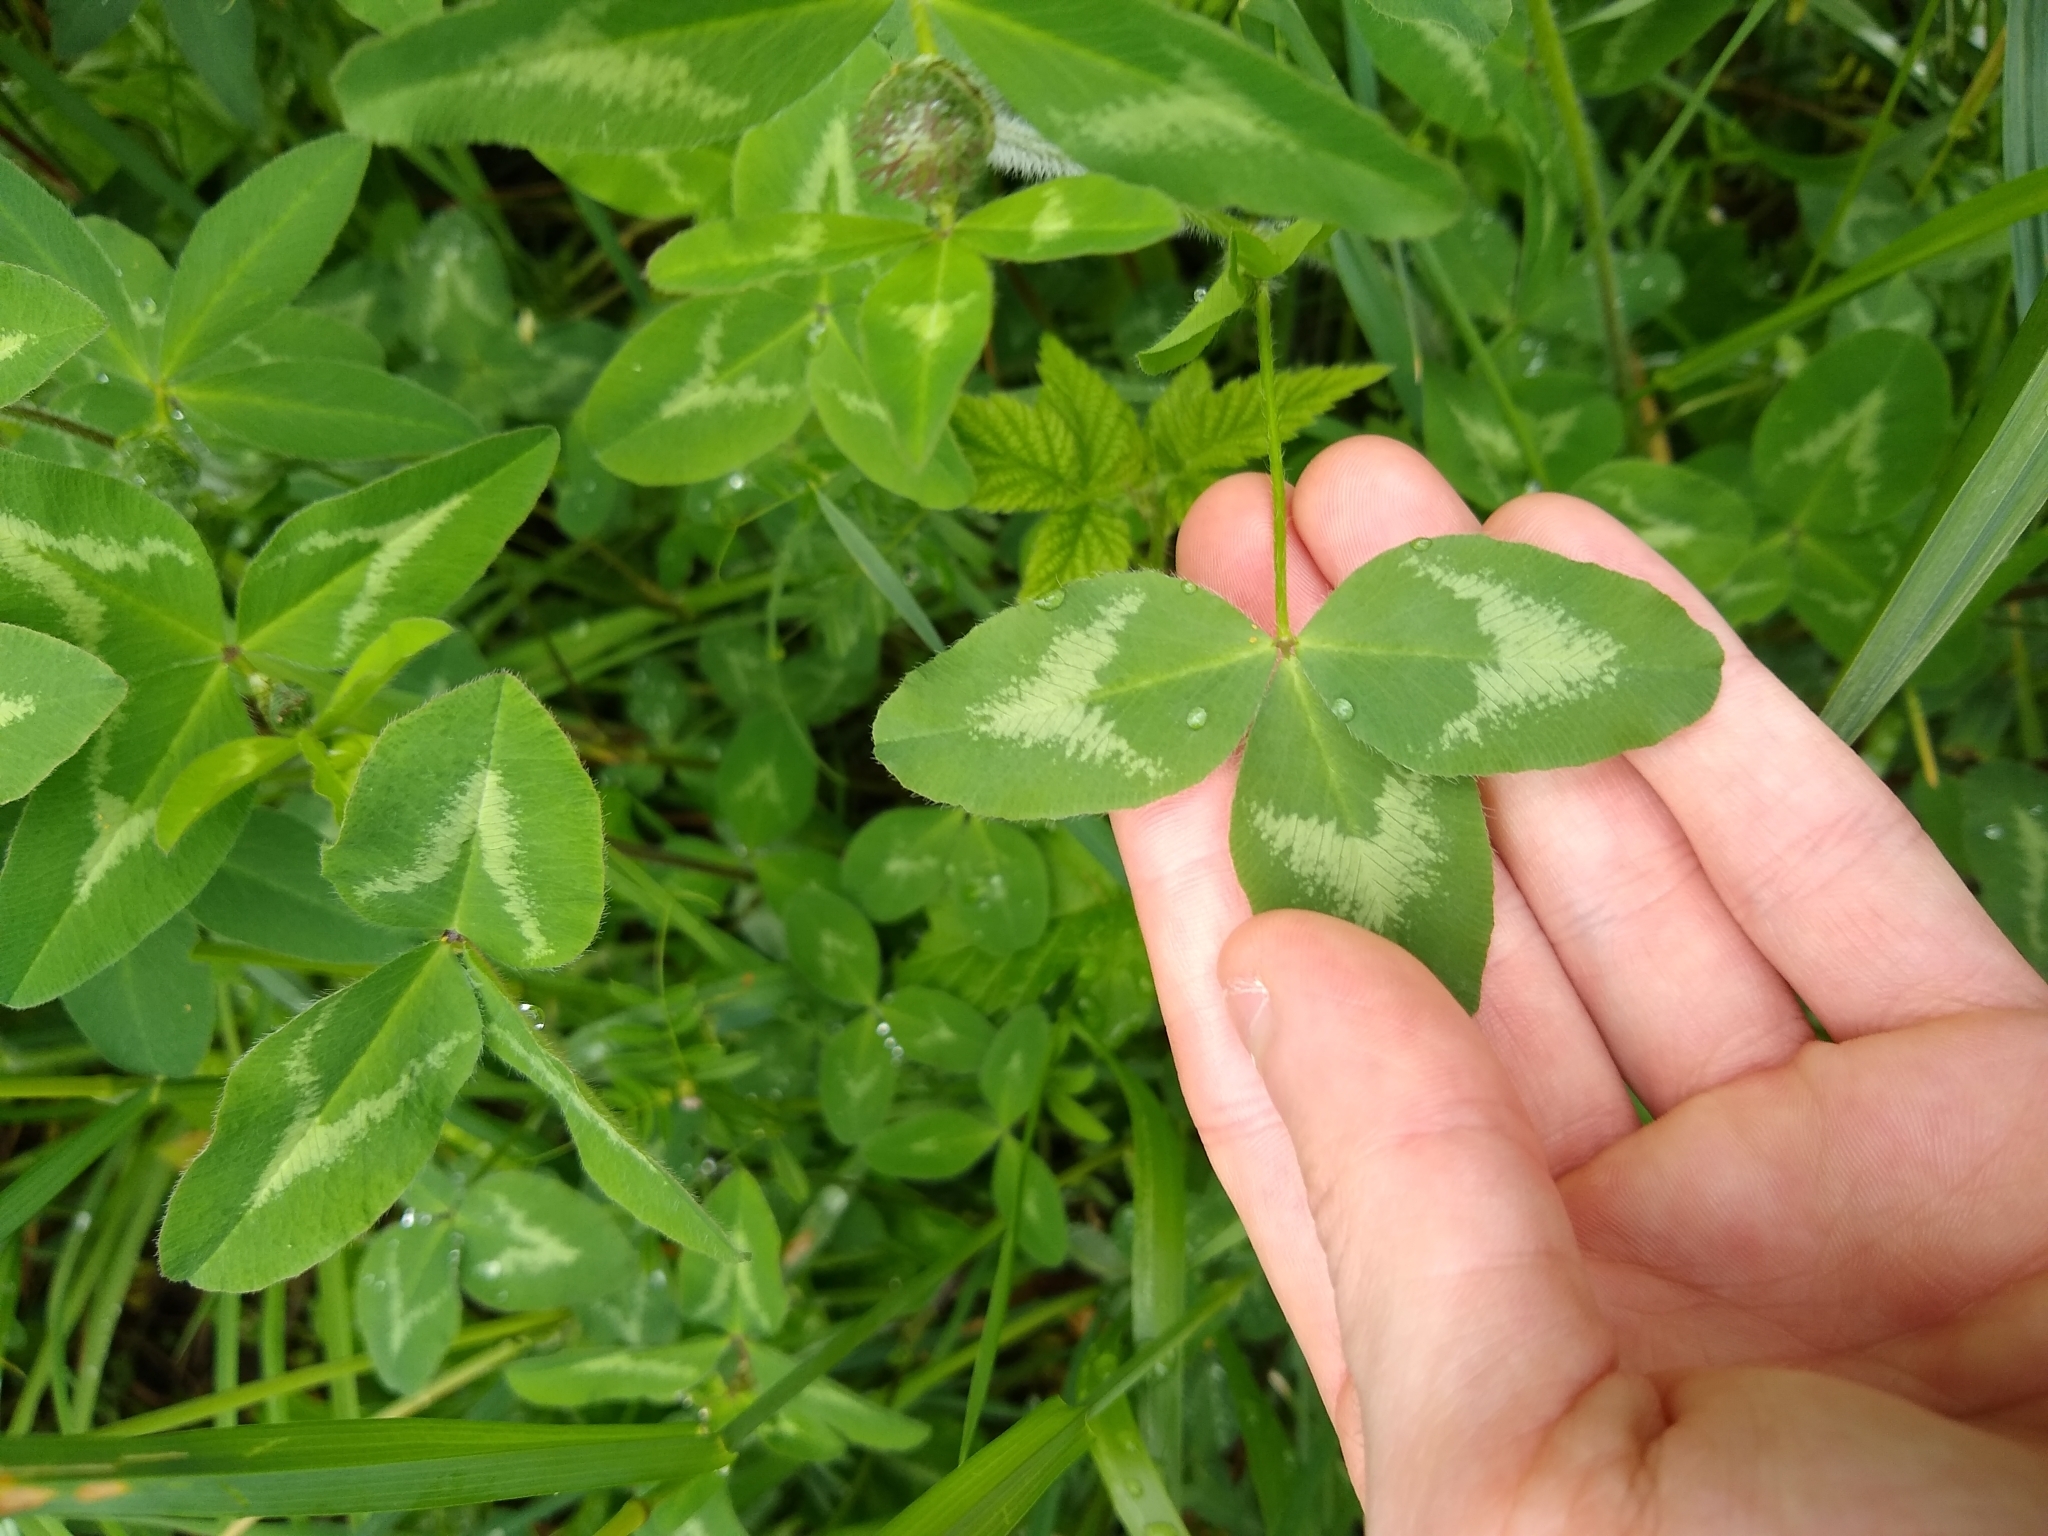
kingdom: Plantae
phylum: Tracheophyta
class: Magnoliopsida
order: Fabales
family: Fabaceae
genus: Trifolium
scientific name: Trifolium pratense
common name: Red clover
